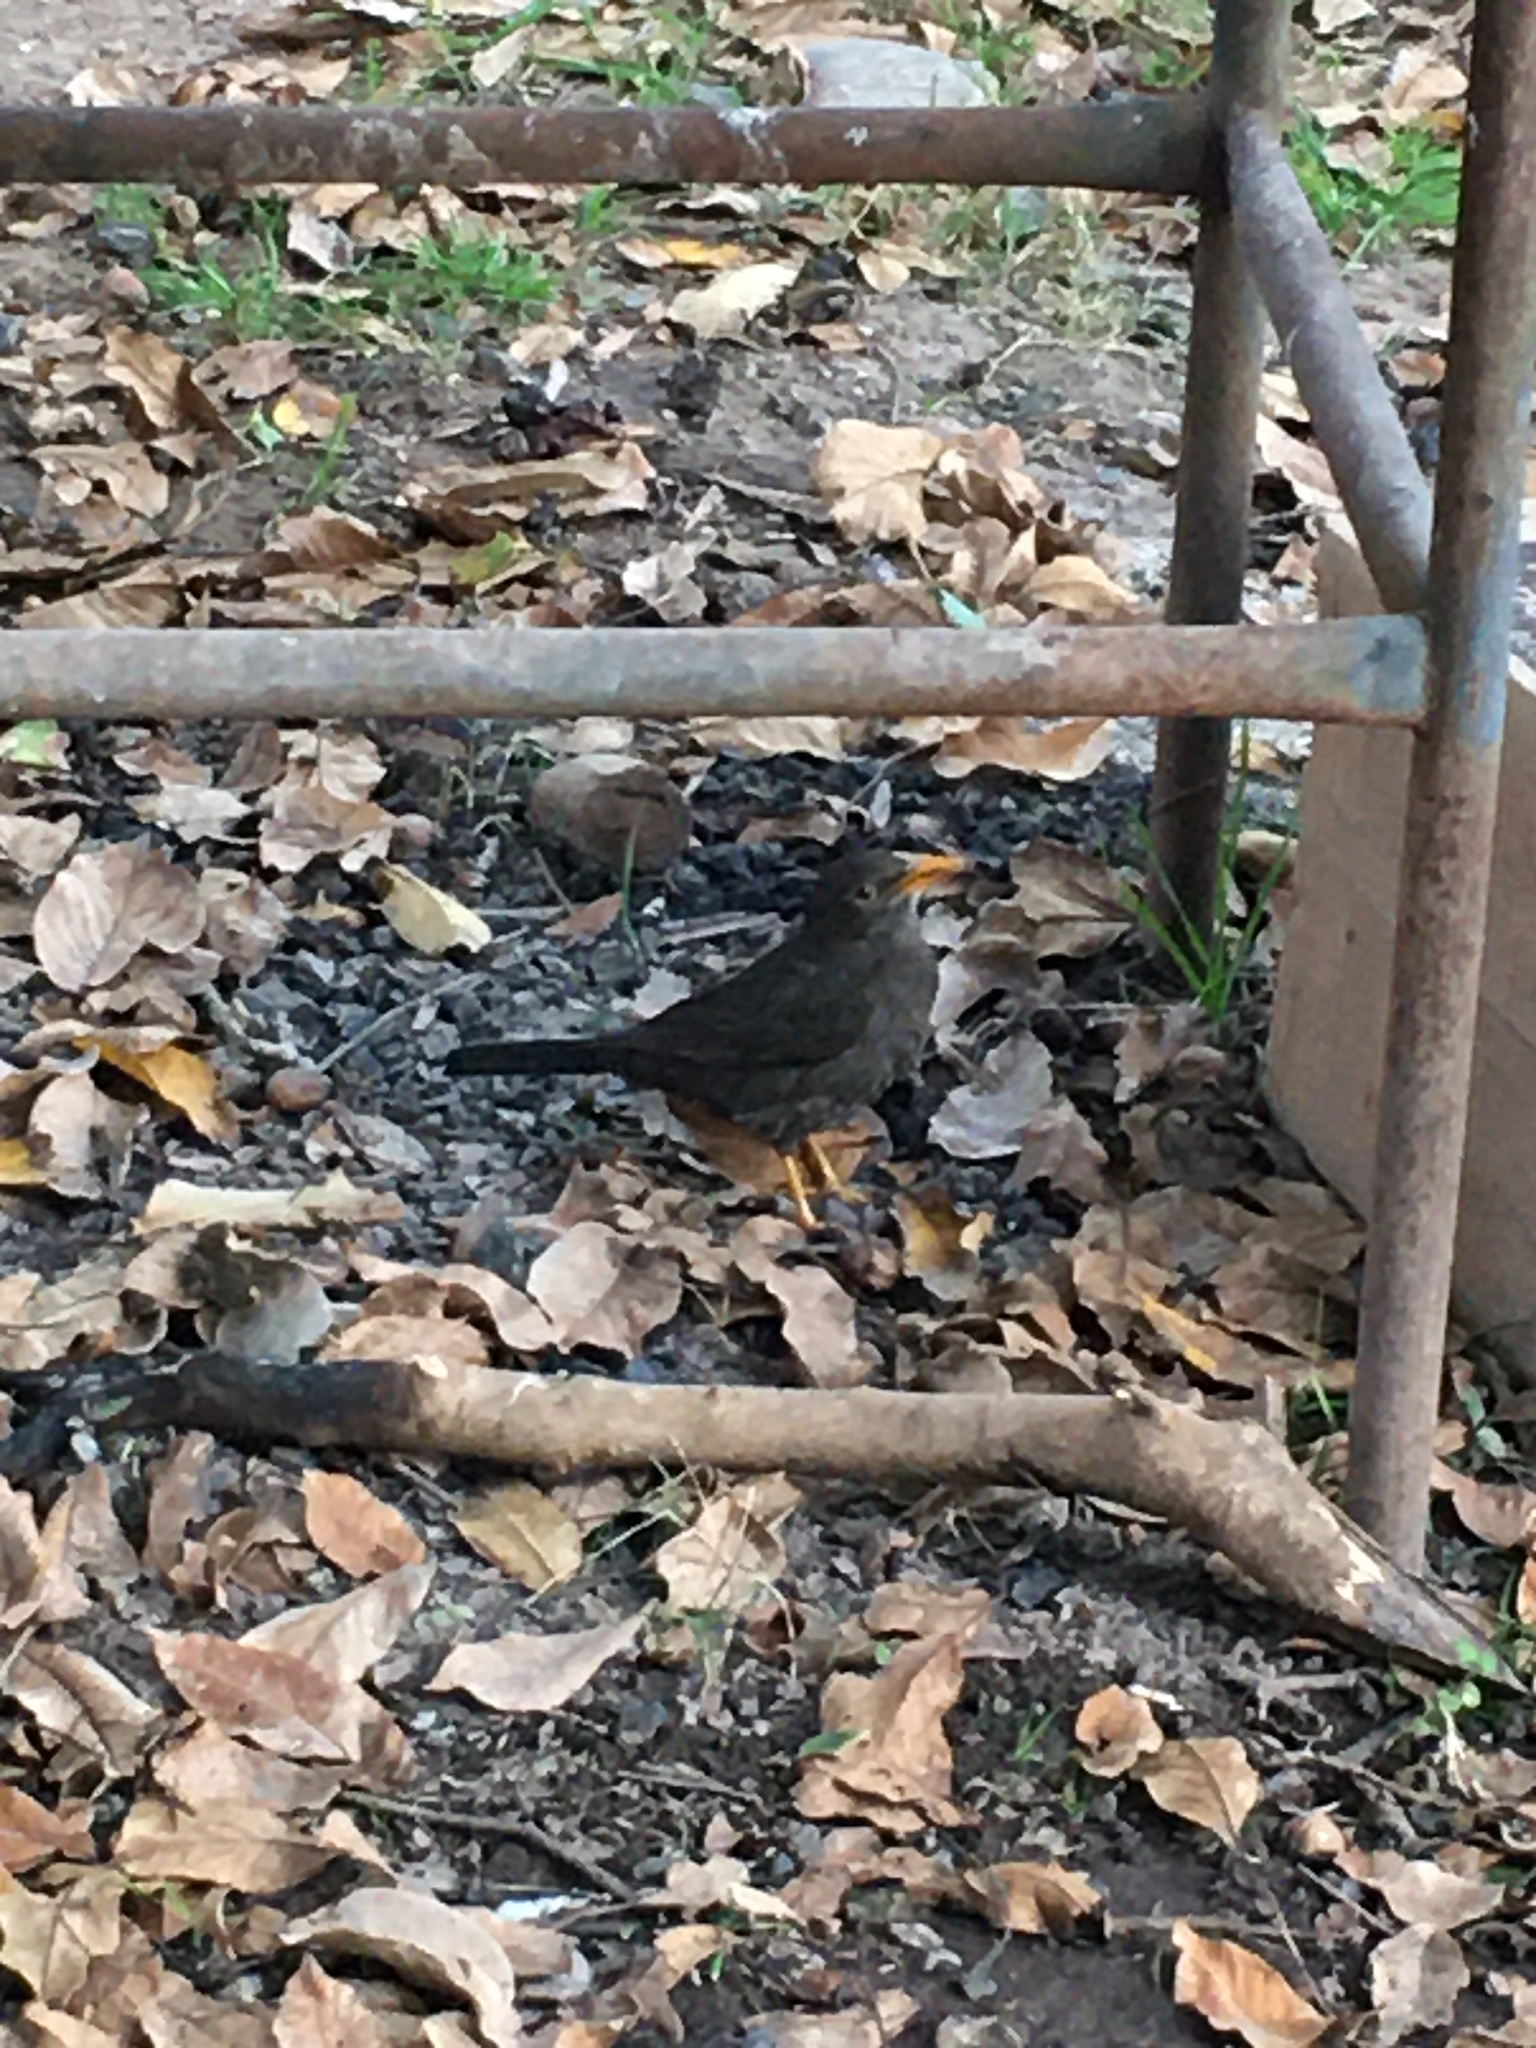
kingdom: Animalia
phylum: Chordata
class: Aves
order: Passeriformes
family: Turdidae
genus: Turdus
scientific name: Turdus chiguanco
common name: Chiguanco thrush
